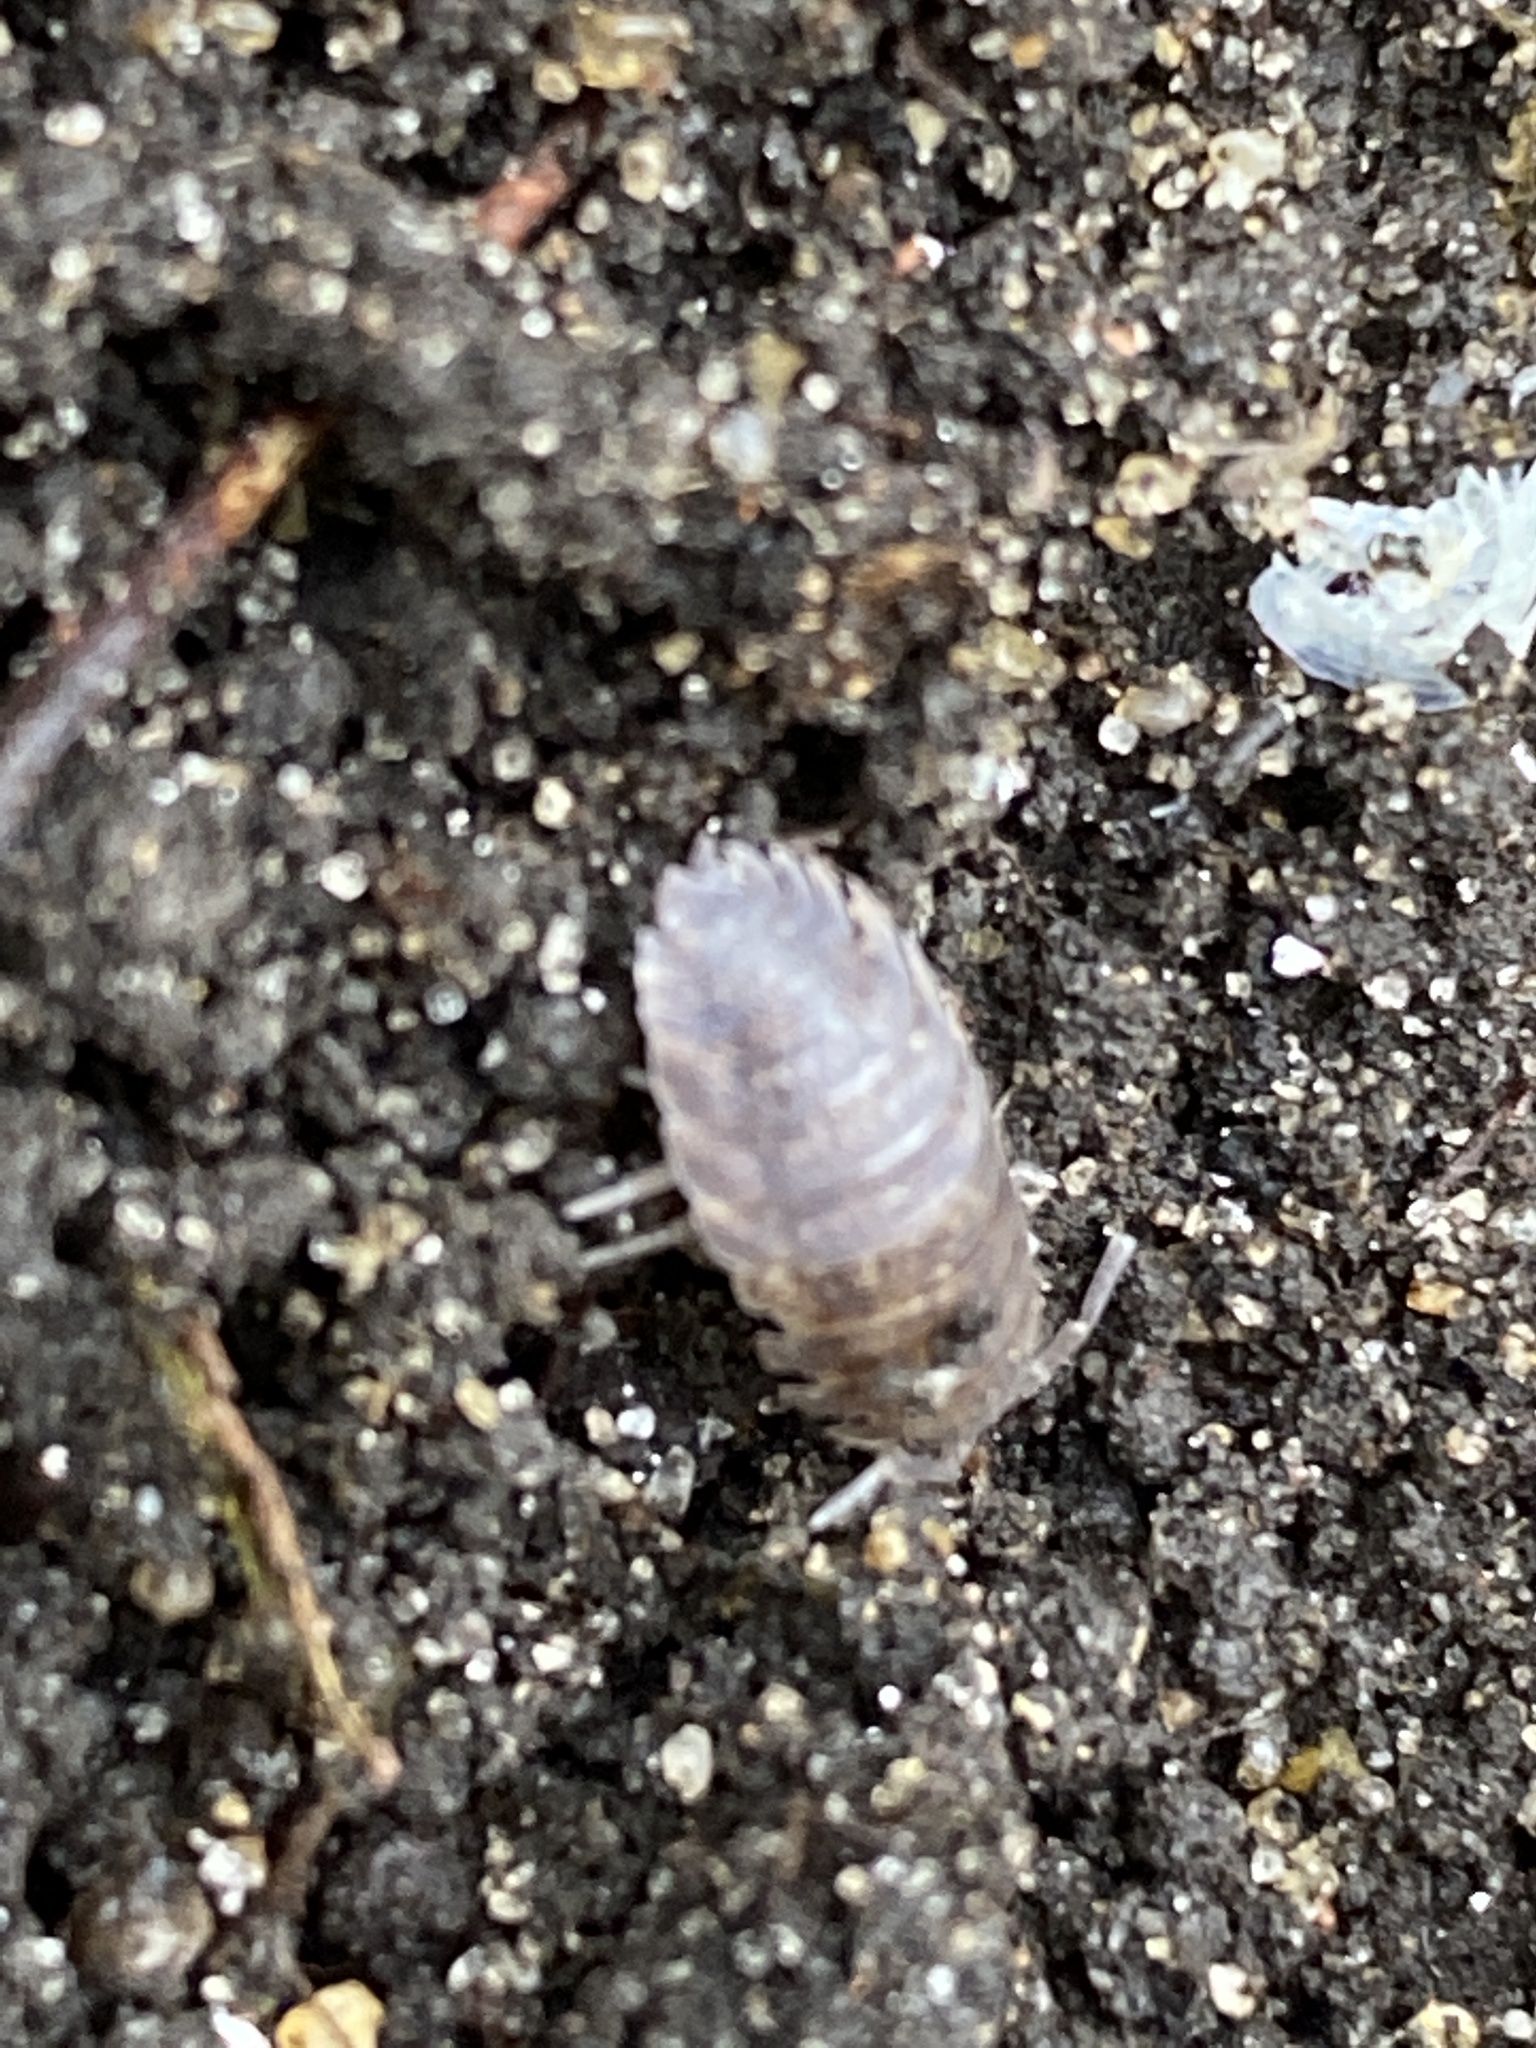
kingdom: Animalia
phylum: Arthropoda
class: Malacostraca
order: Isopoda
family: Porcellionidae
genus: Porcellio
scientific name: Porcellio scaber
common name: Common rough woodlouse
